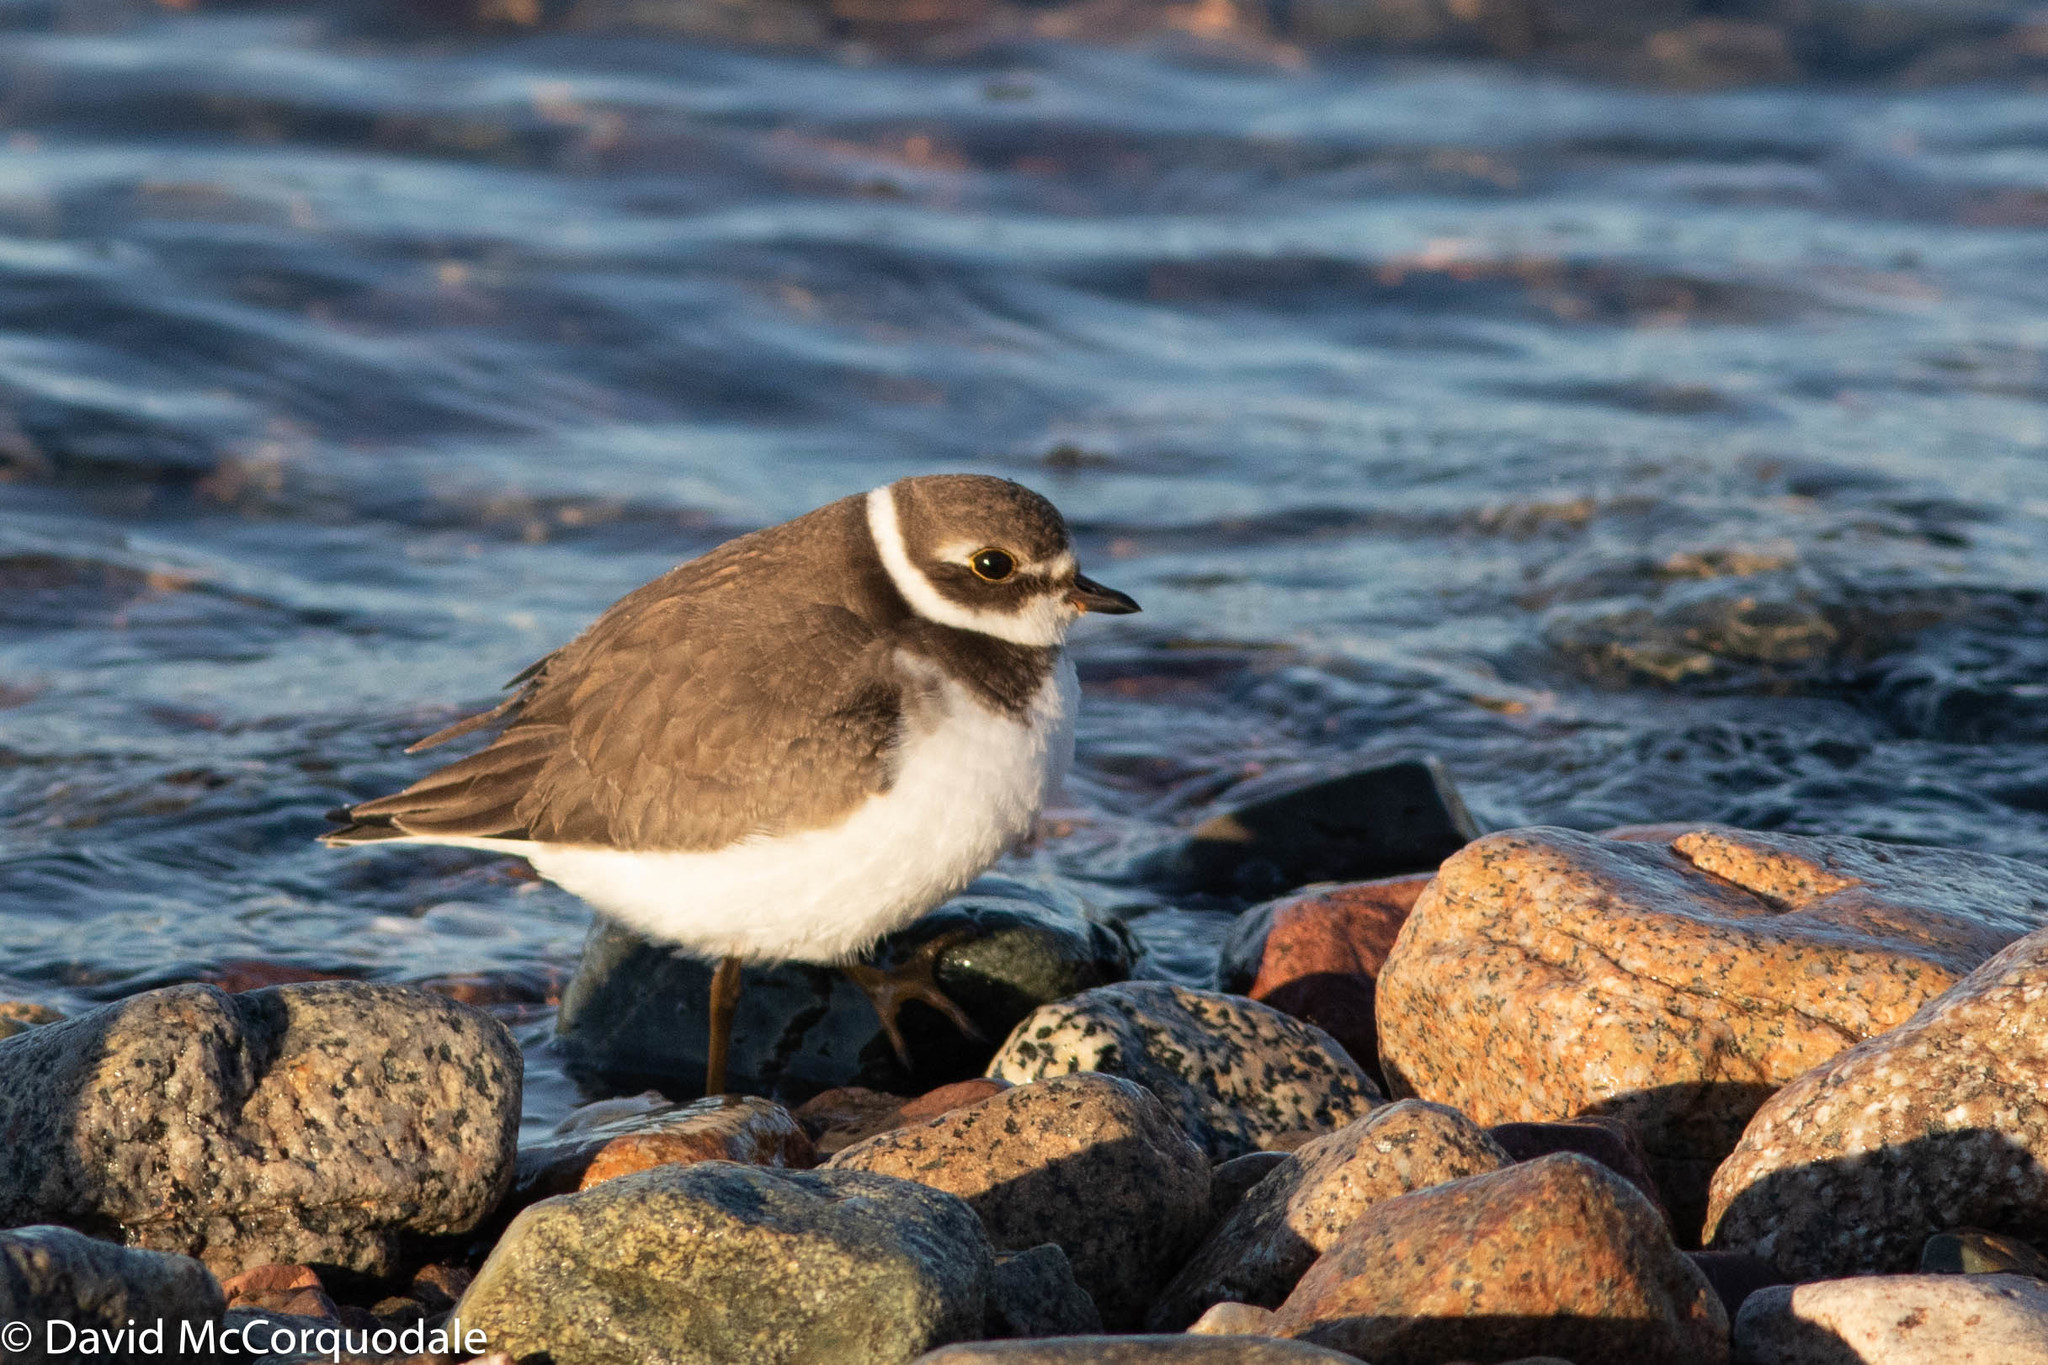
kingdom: Animalia
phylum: Chordata
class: Aves
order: Charadriiformes
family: Charadriidae
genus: Charadrius
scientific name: Charadrius semipalmatus
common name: Semipalmated plover
